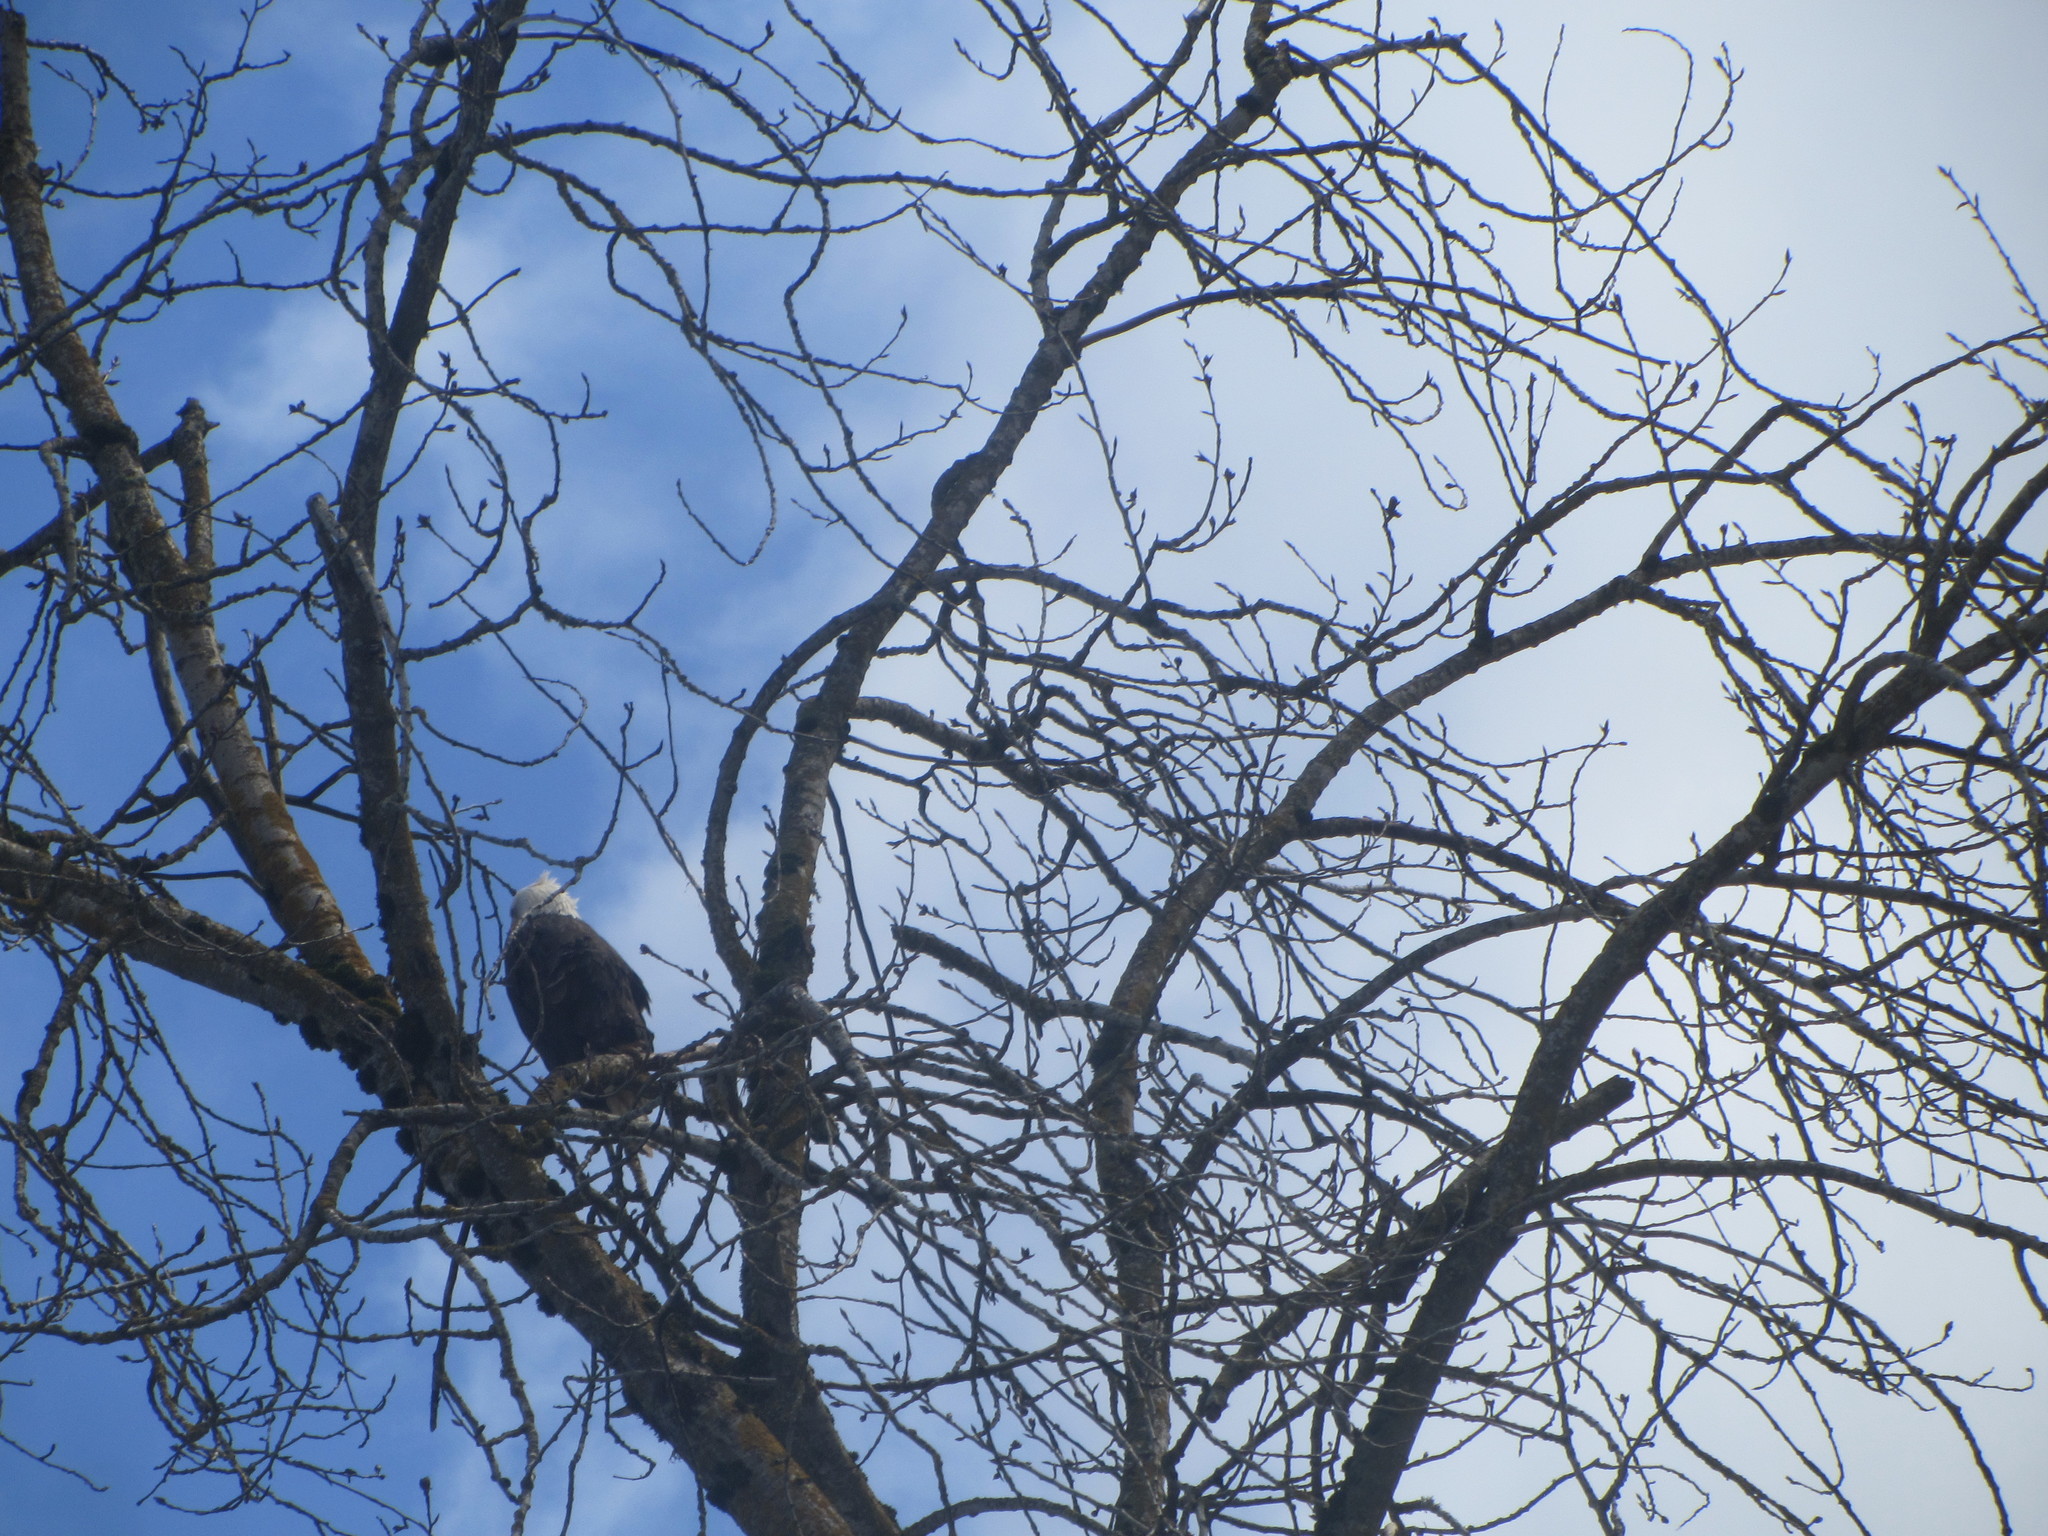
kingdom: Animalia
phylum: Chordata
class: Aves
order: Accipitriformes
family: Accipitridae
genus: Haliaeetus
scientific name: Haliaeetus leucocephalus
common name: Bald eagle
